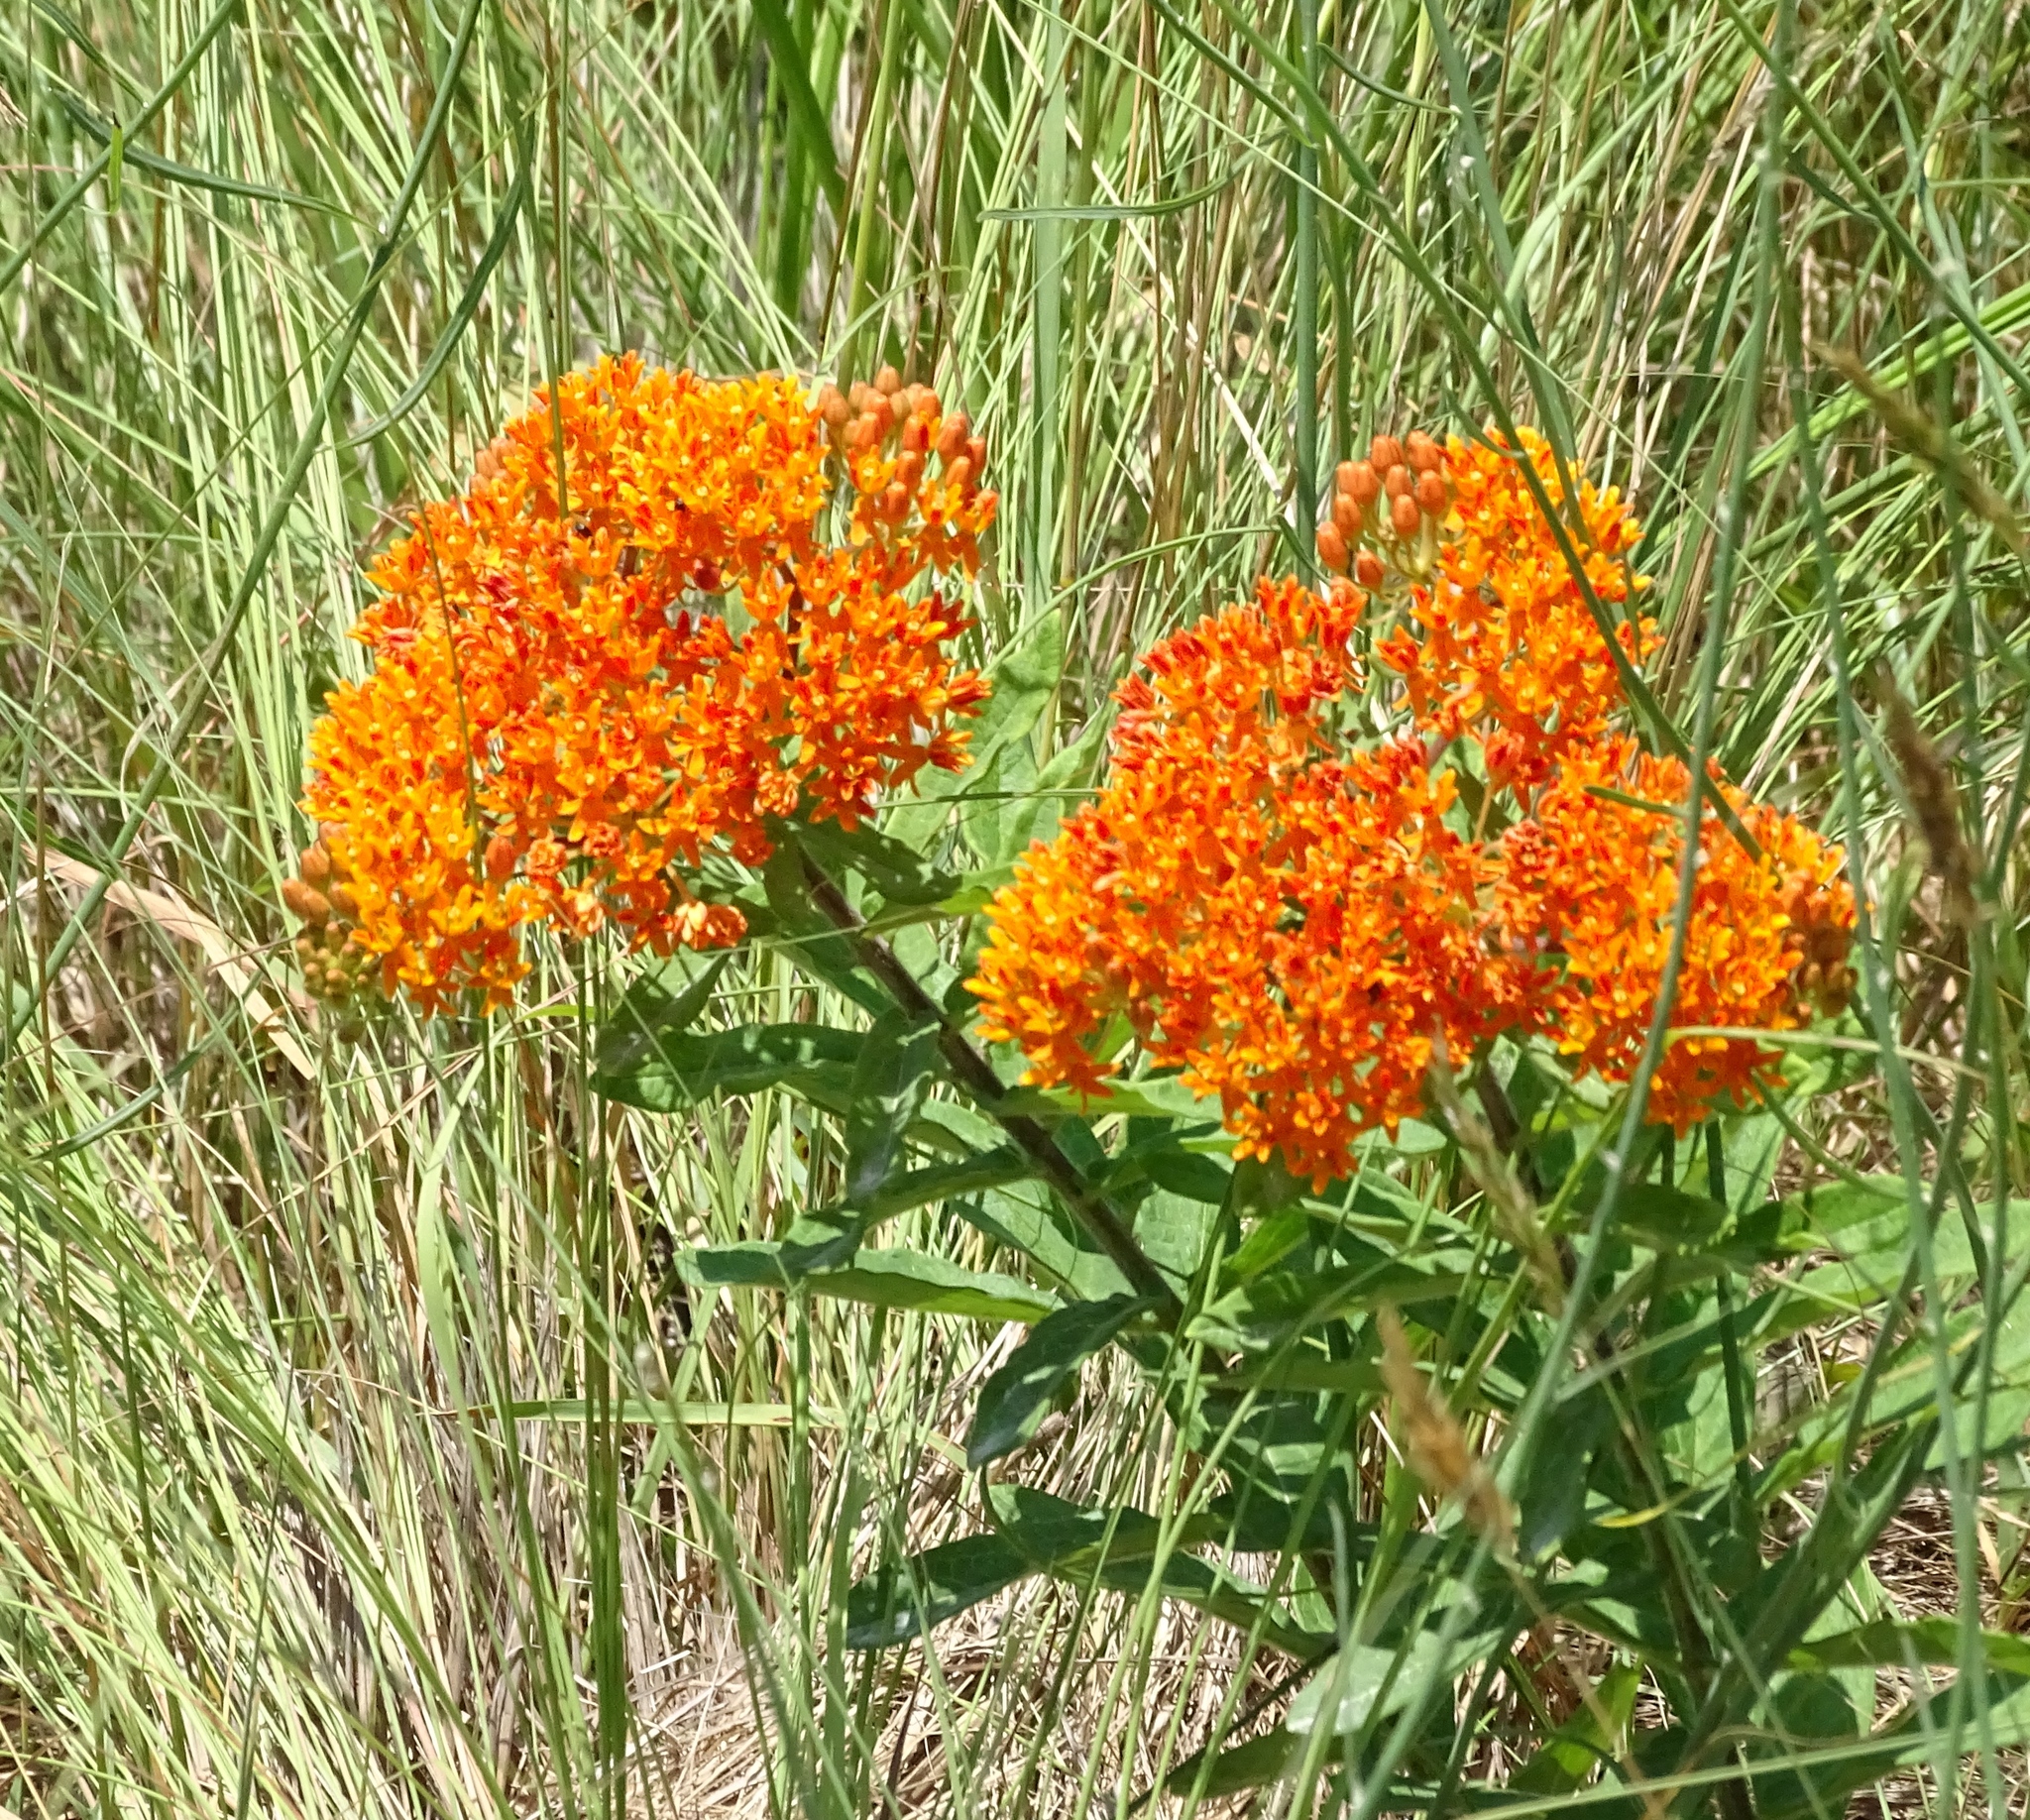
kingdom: Plantae
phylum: Tracheophyta
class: Magnoliopsida
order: Gentianales
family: Apocynaceae
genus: Asclepias
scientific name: Asclepias tuberosa
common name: Butterfly milkweed
